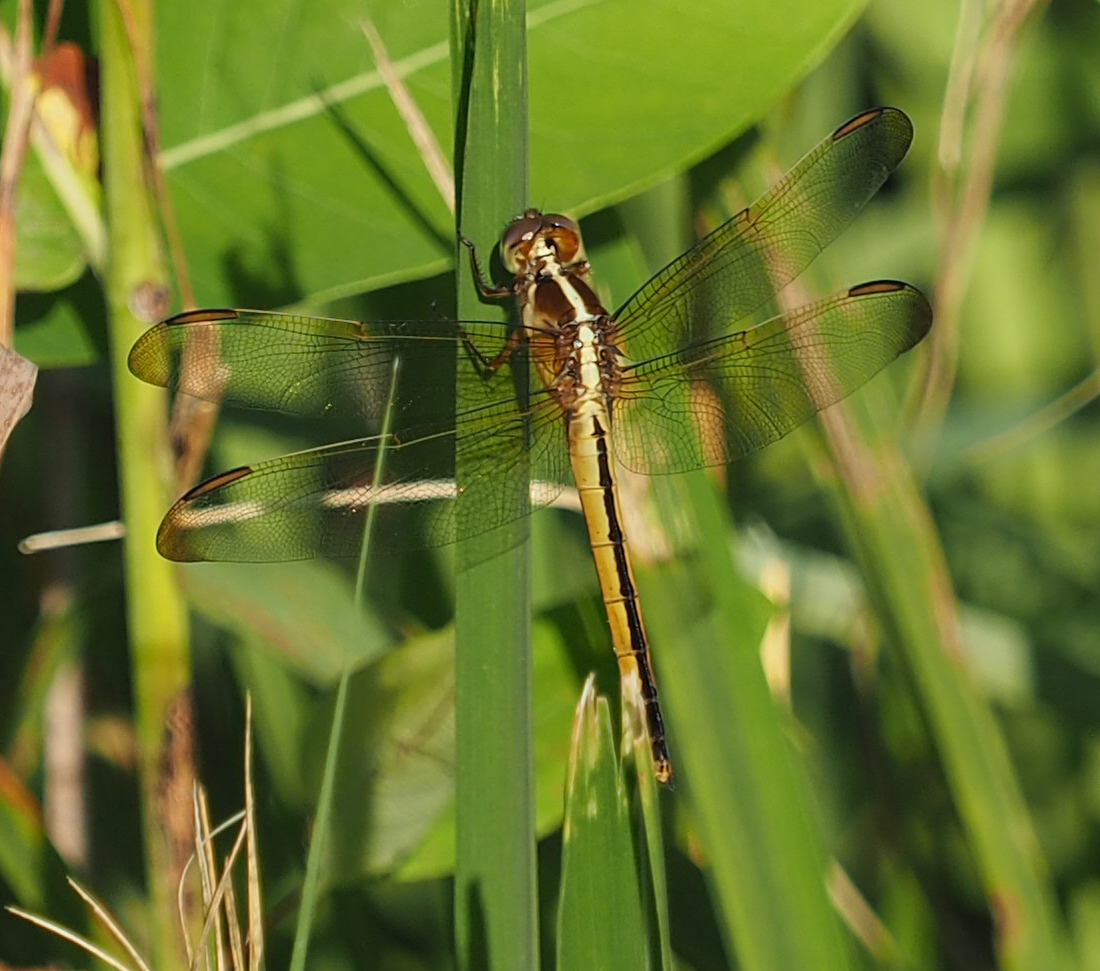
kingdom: Animalia
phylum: Arthropoda
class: Insecta
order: Odonata
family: Libellulidae
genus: Libellula
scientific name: Libellula needhami
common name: Needham's skimmer
